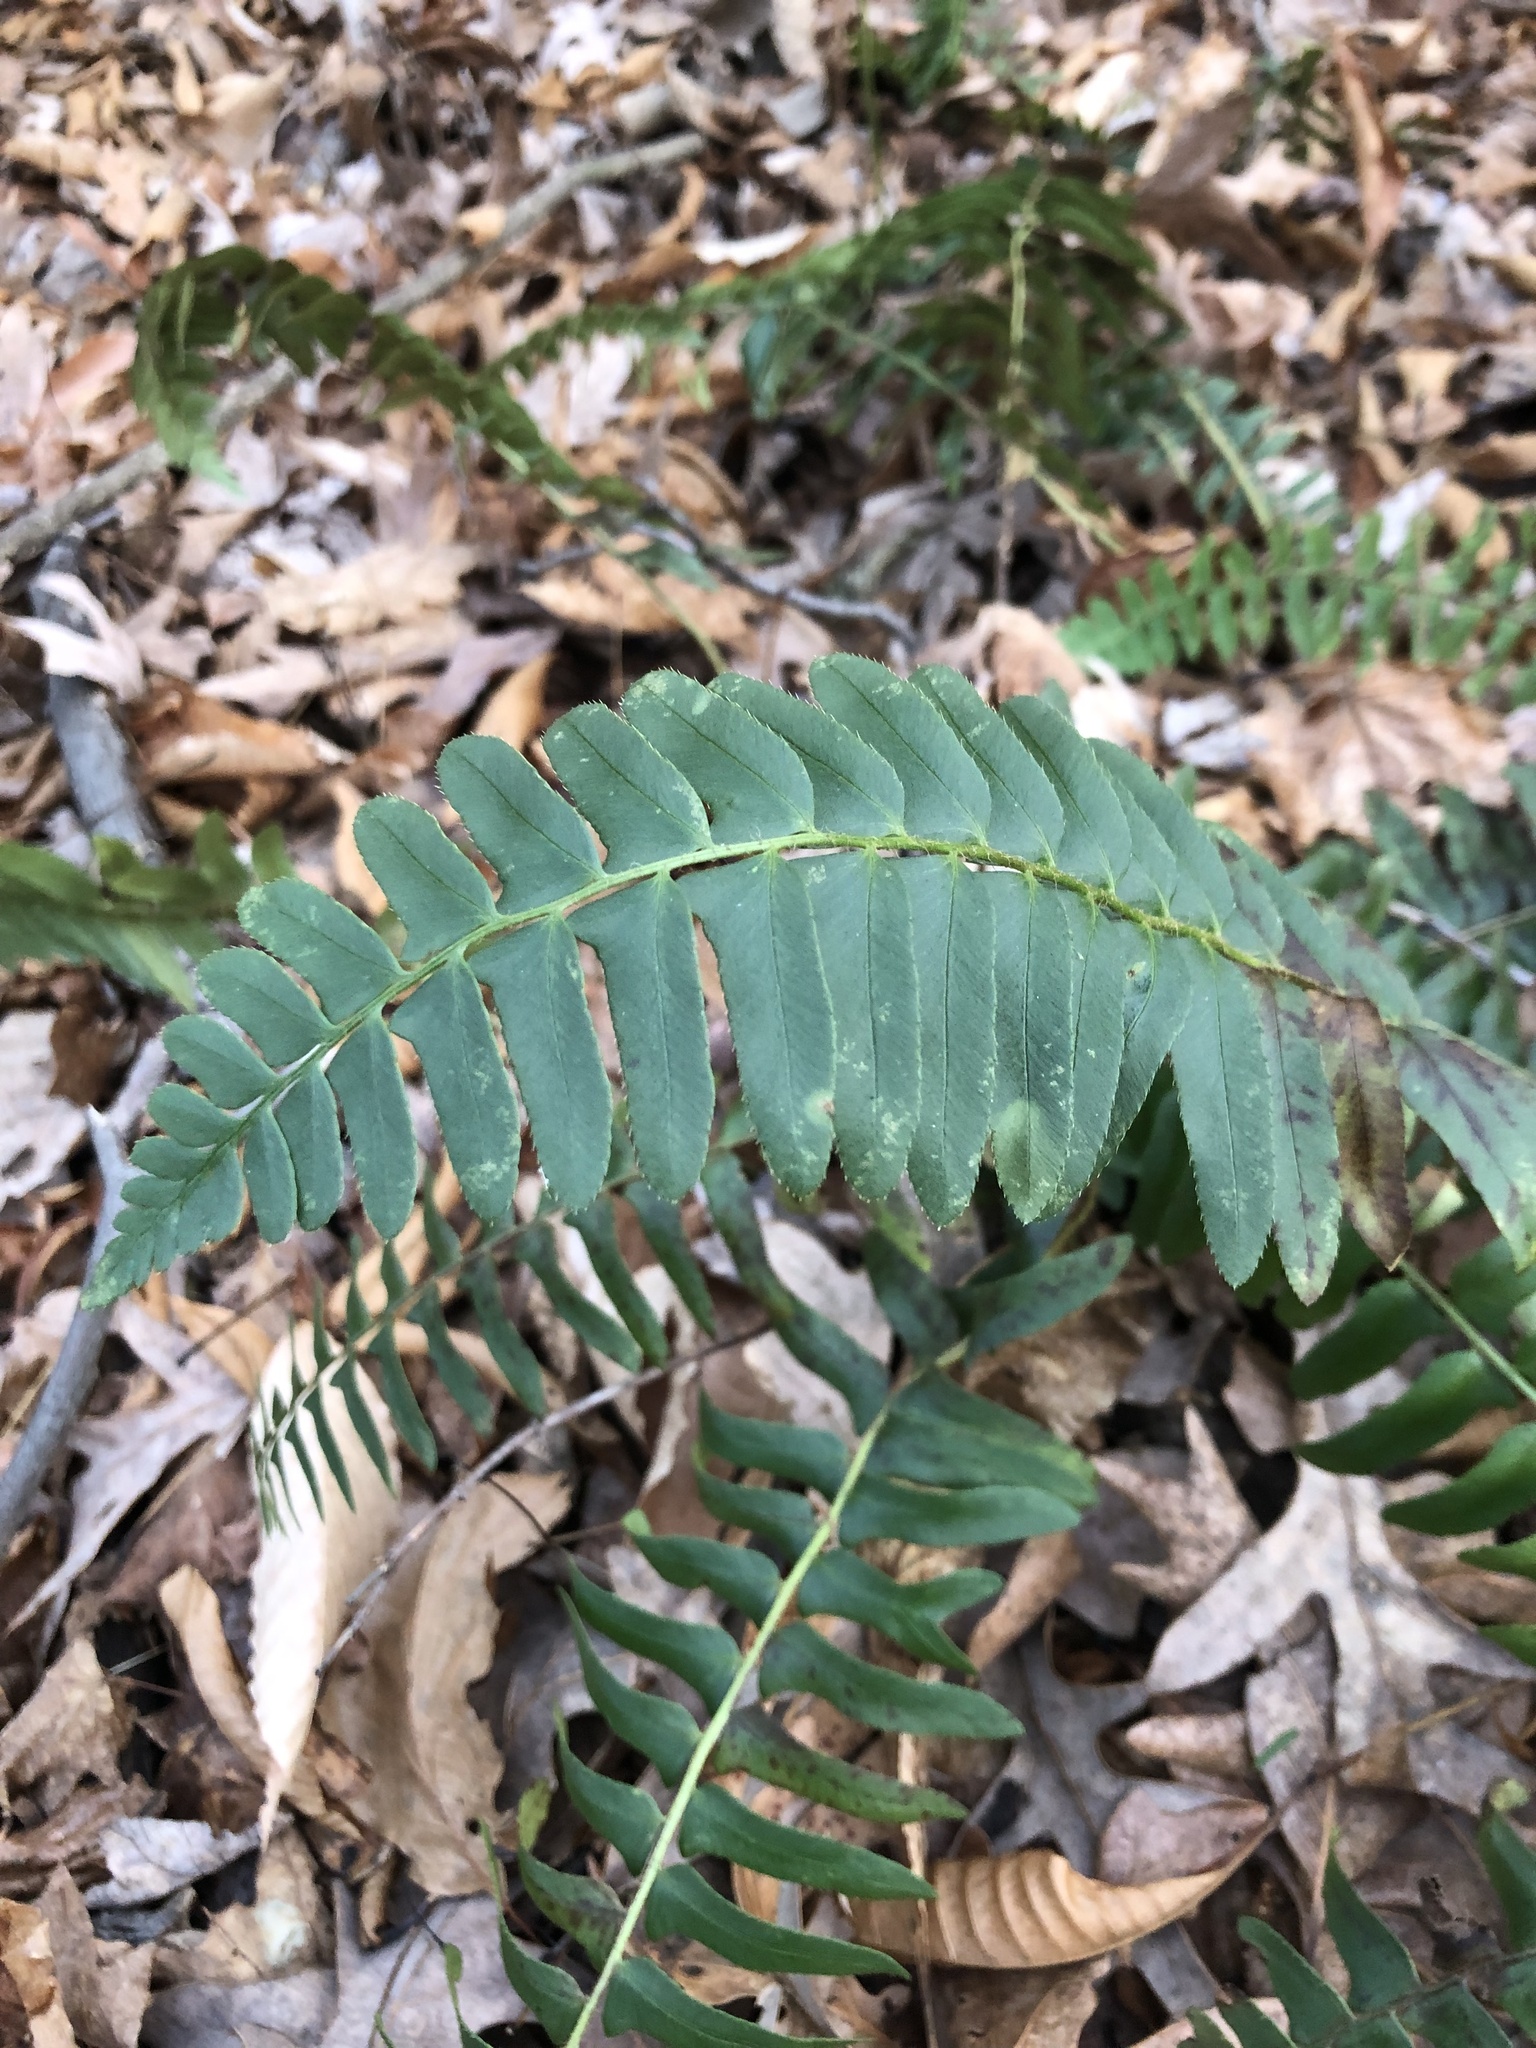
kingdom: Plantae
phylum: Tracheophyta
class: Polypodiopsida
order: Polypodiales
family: Dryopteridaceae
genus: Polystichum
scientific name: Polystichum acrostichoides
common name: Christmas fern
